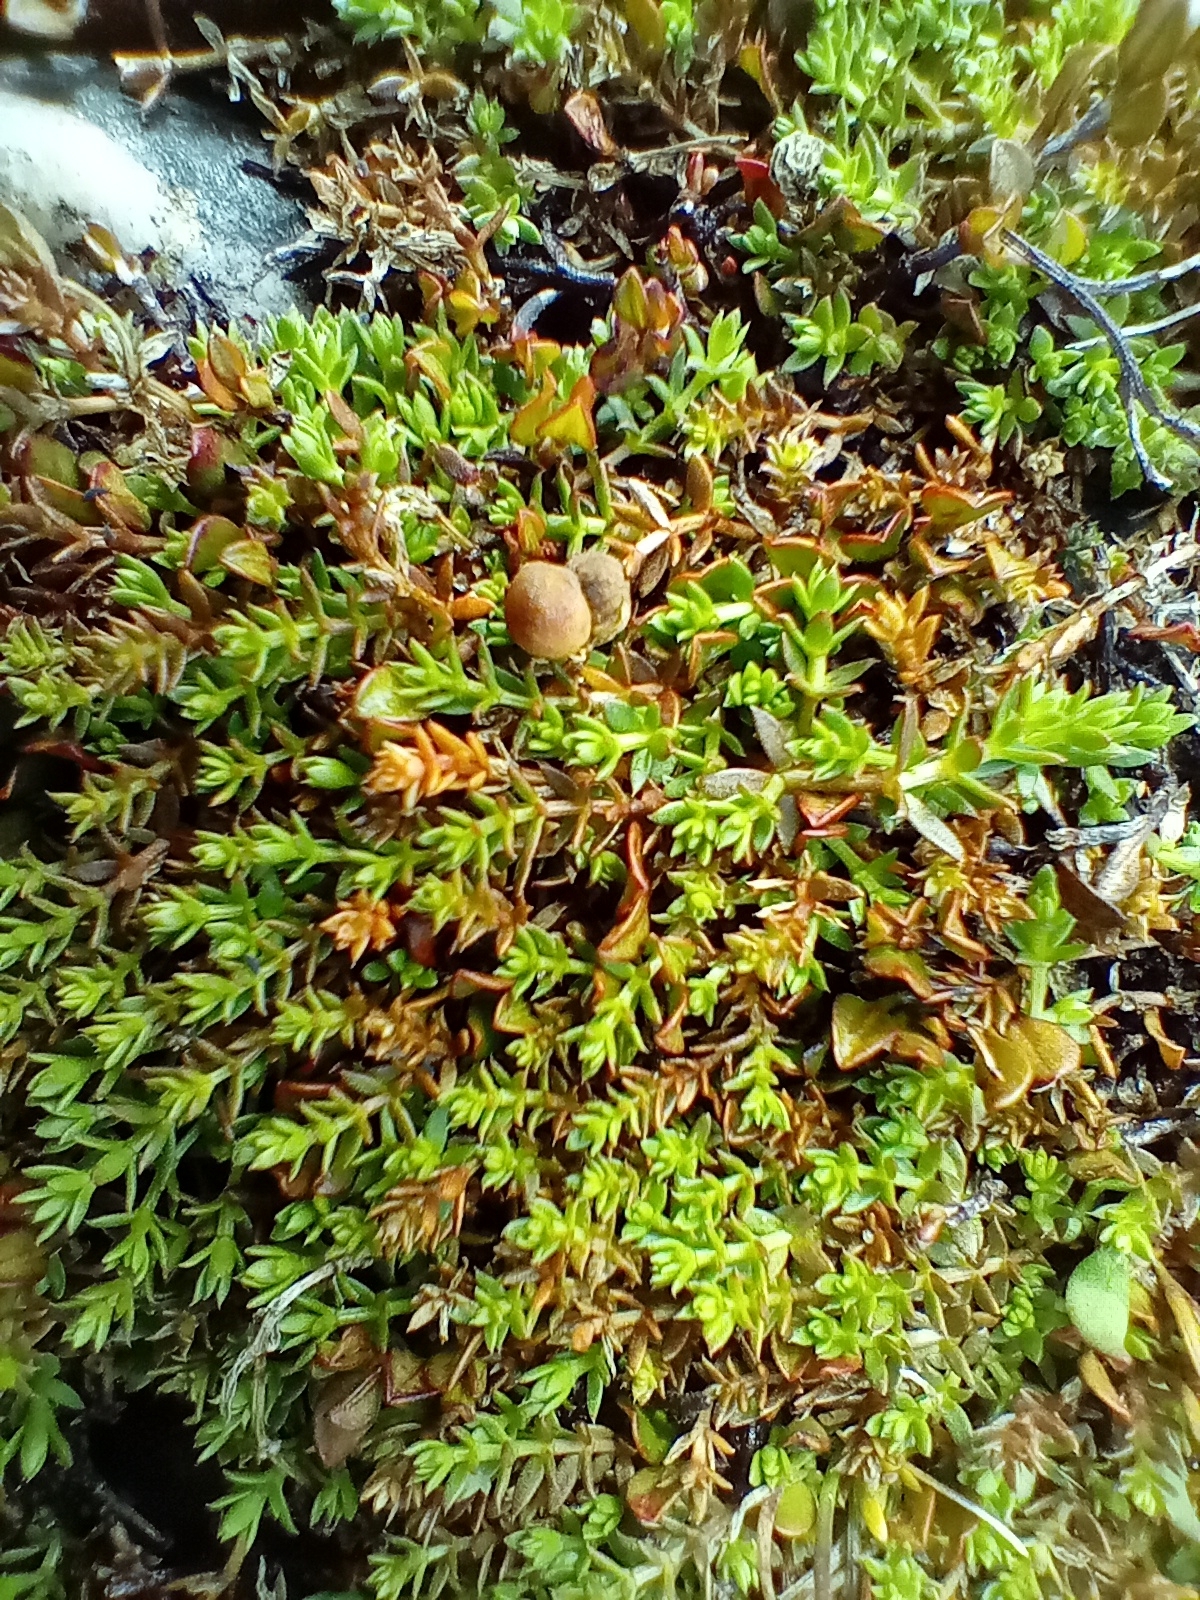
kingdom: Plantae
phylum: Tracheophyta
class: Magnoliopsida
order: Gentianales
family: Rubiaceae
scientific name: Rubiaceae
